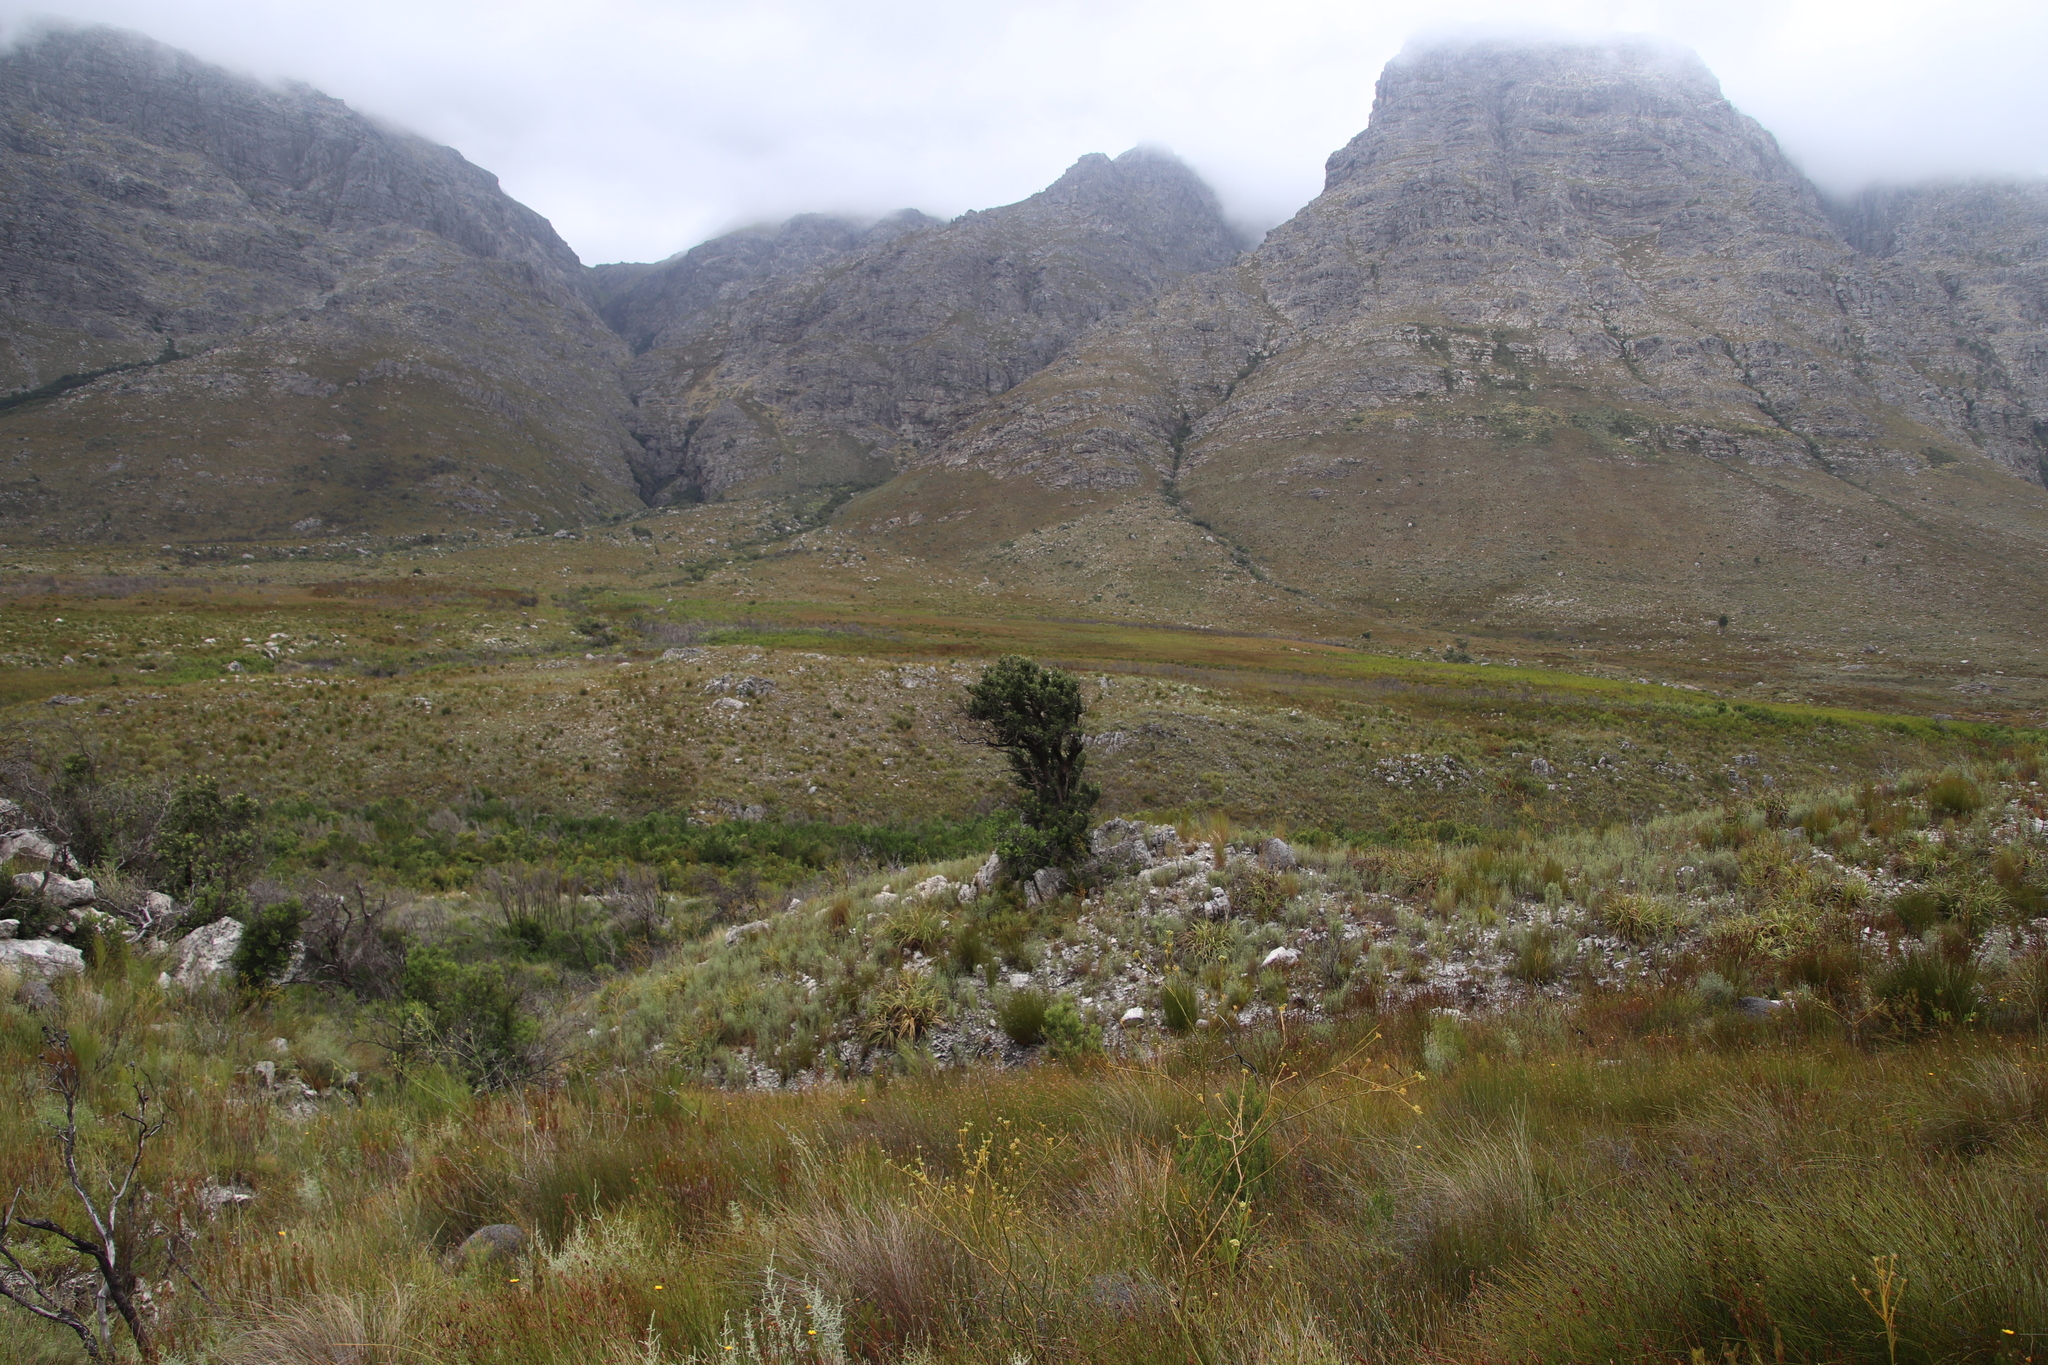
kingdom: Plantae
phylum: Tracheophyta
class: Magnoliopsida
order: Celastrales
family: Celastraceae
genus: Gymnosporia
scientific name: Gymnosporia laurina
